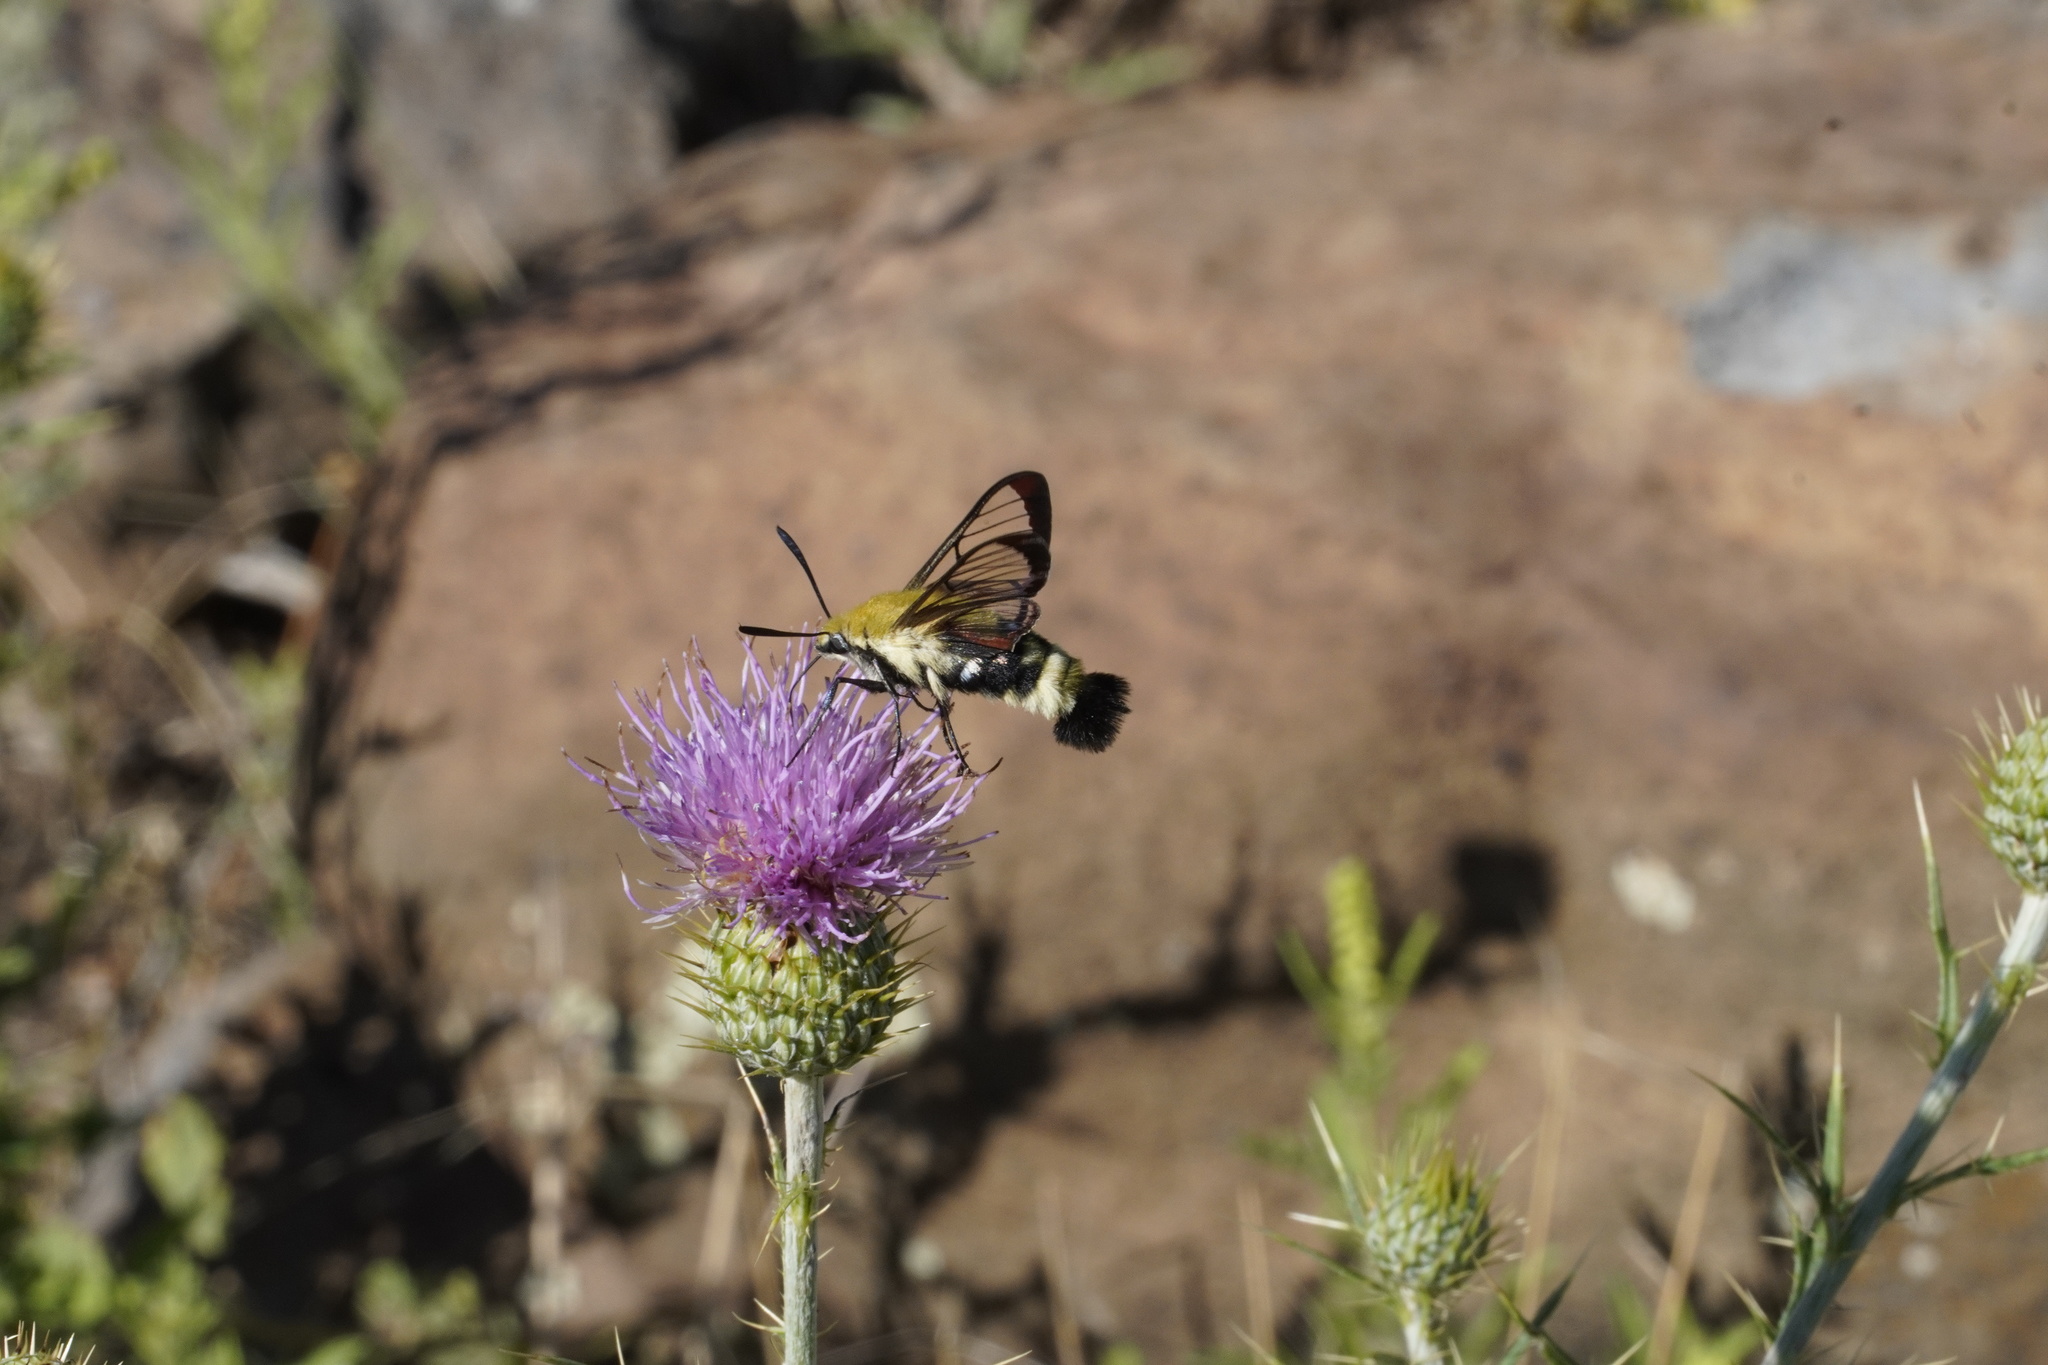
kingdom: Animalia
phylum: Arthropoda
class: Insecta
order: Lepidoptera
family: Sphingidae
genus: Hemaris
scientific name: Hemaris thetis
